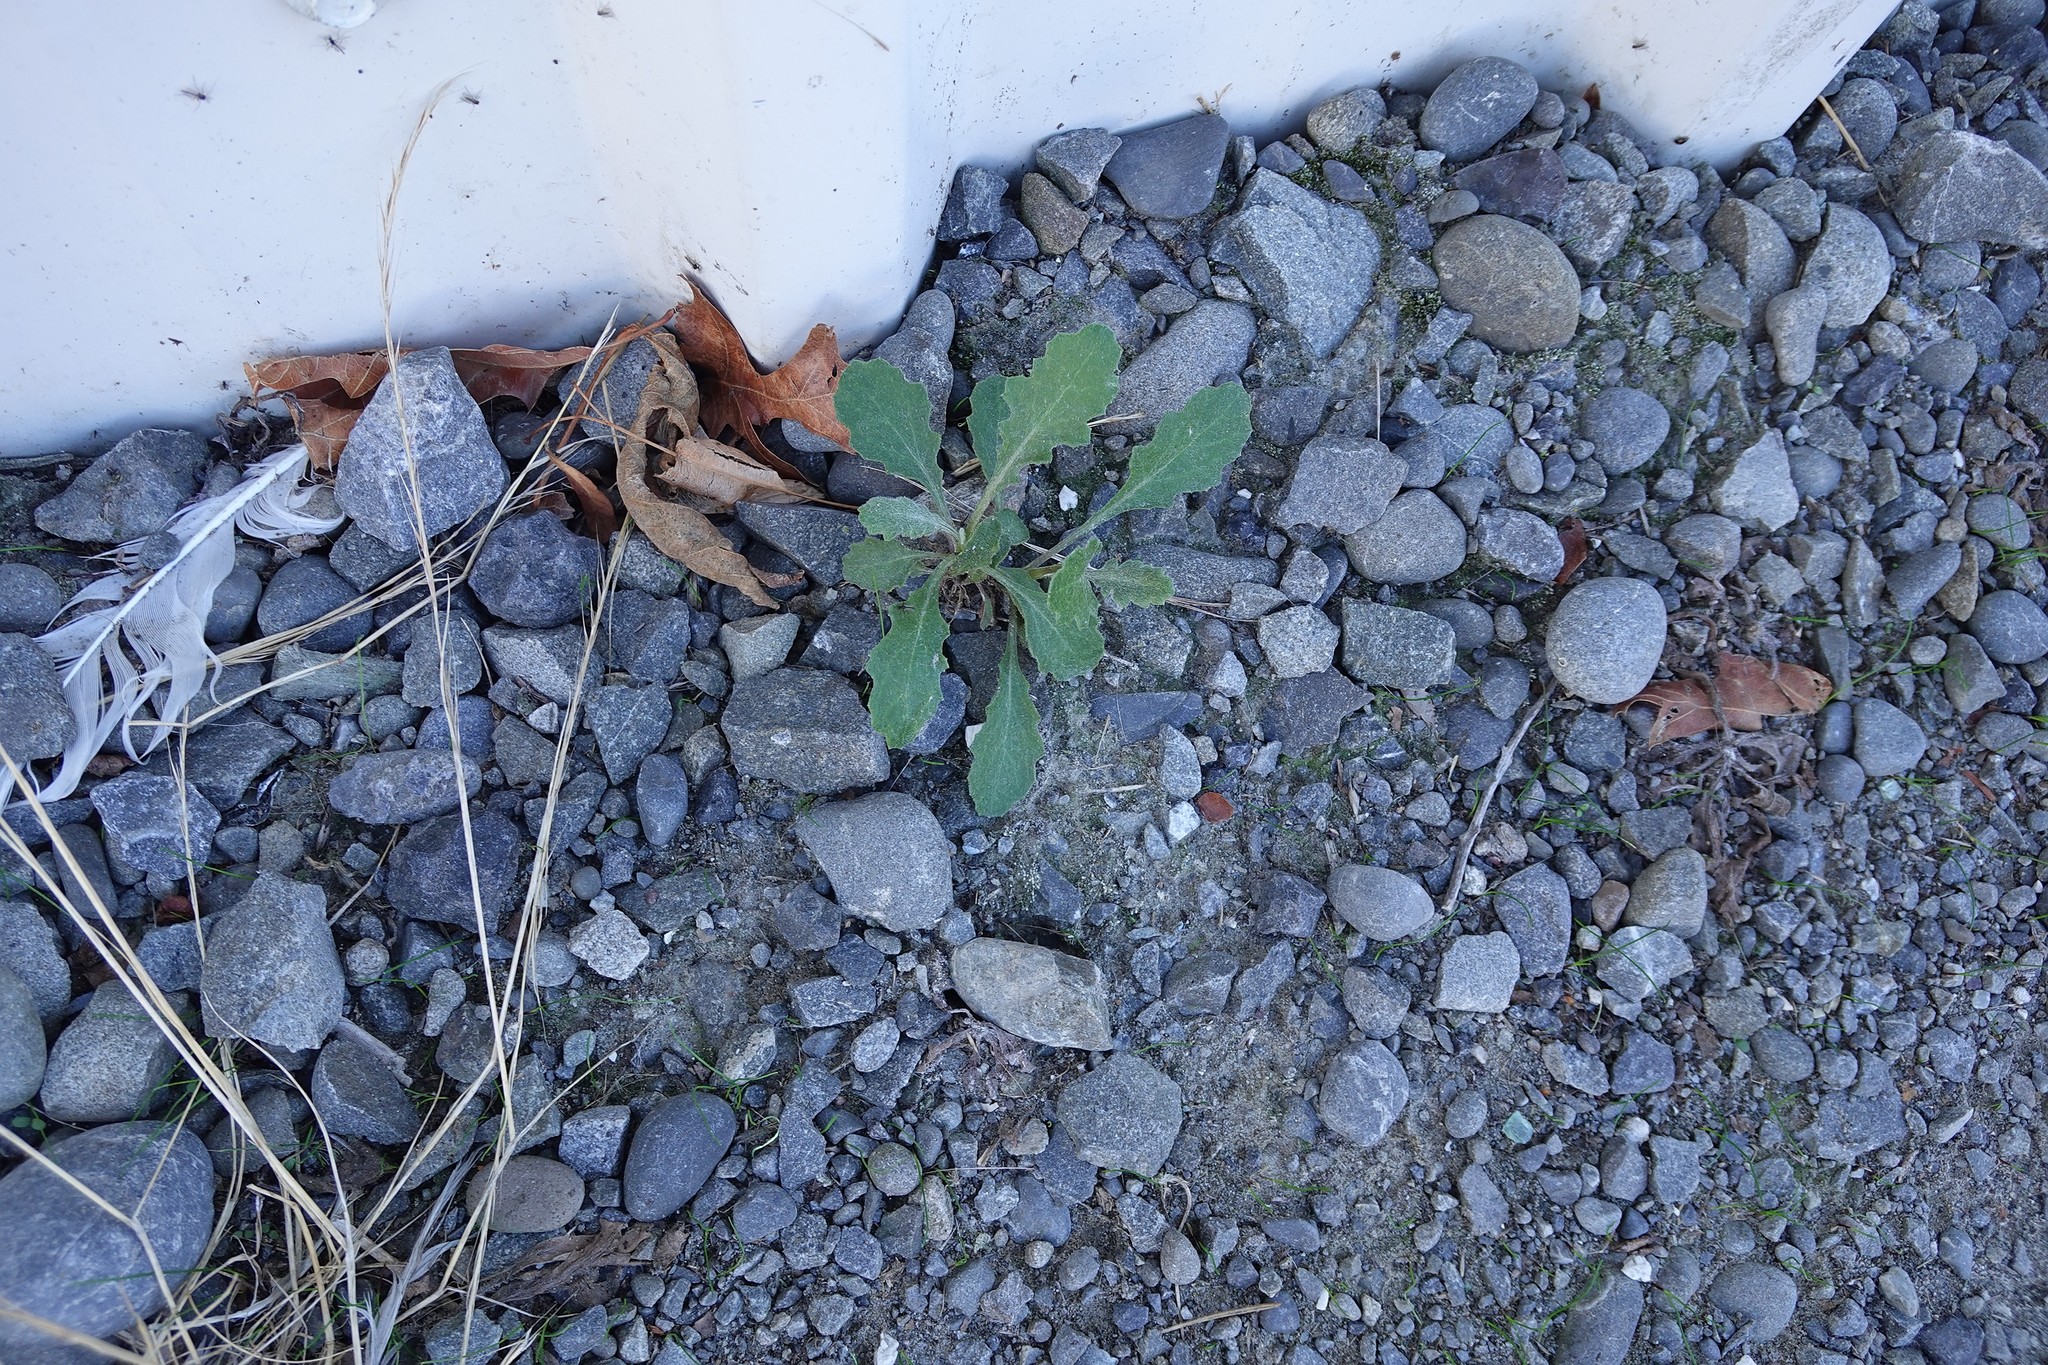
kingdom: Plantae
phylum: Tracheophyta
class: Magnoliopsida
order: Asterales
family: Asteraceae
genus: Senecio
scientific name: Senecio glomeratus
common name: Cutleaf burnweed
